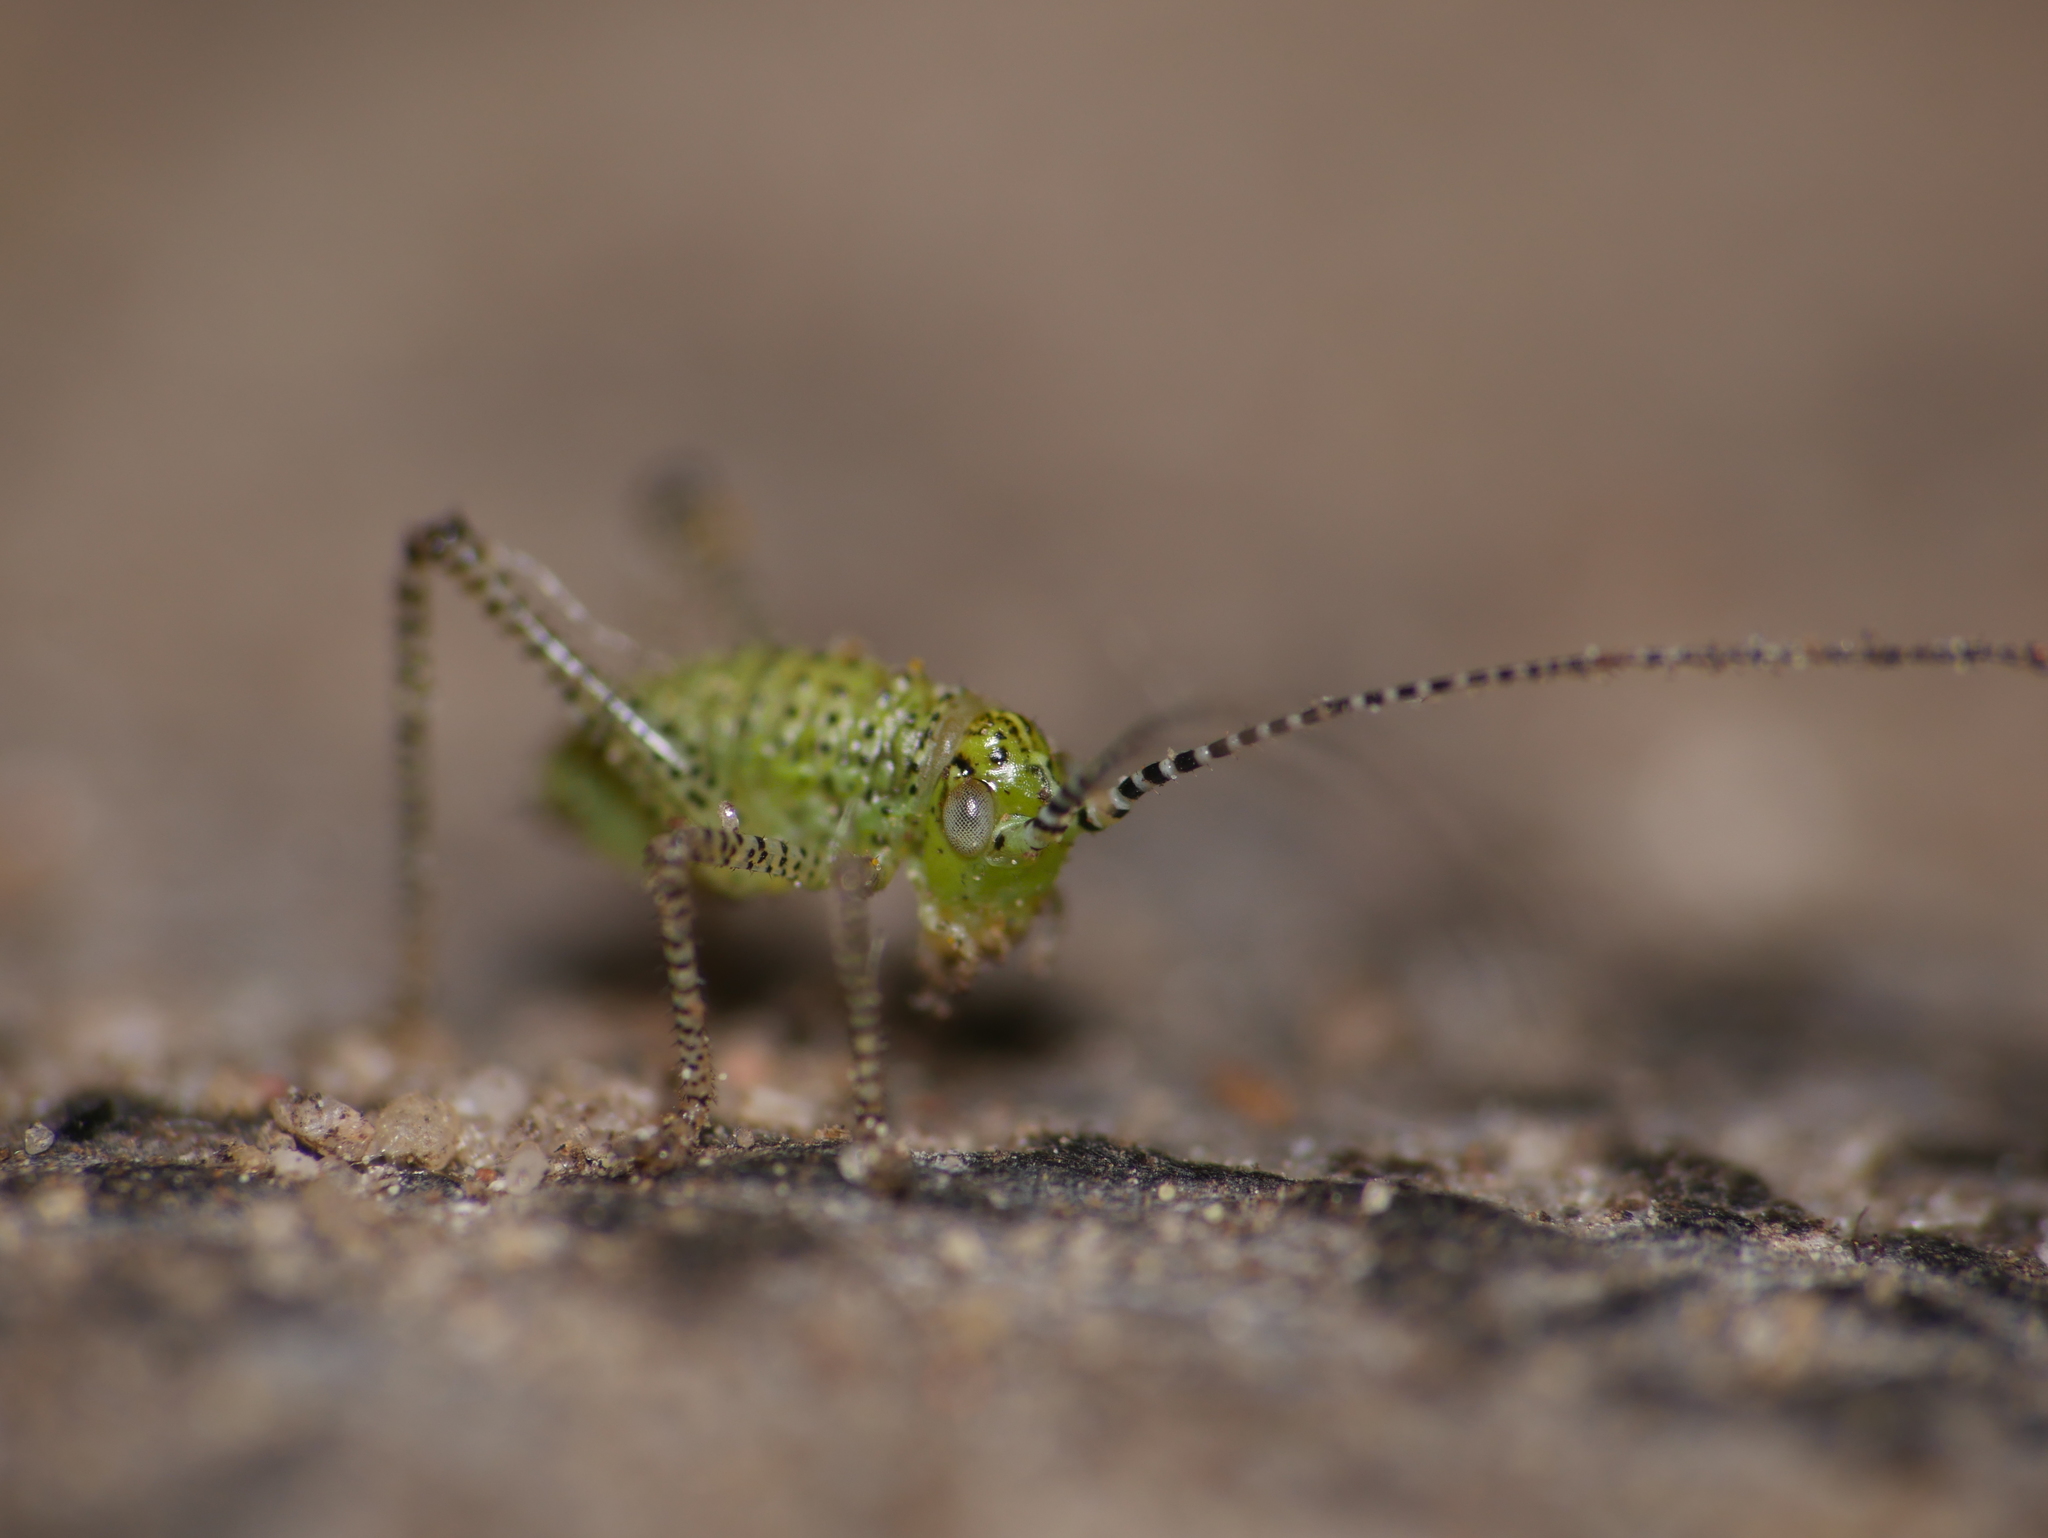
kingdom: Animalia
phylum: Arthropoda
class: Insecta
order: Orthoptera
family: Tettigoniidae
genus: Leptophyes
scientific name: Leptophyes punctatissima
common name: Speckled bush-cricket
